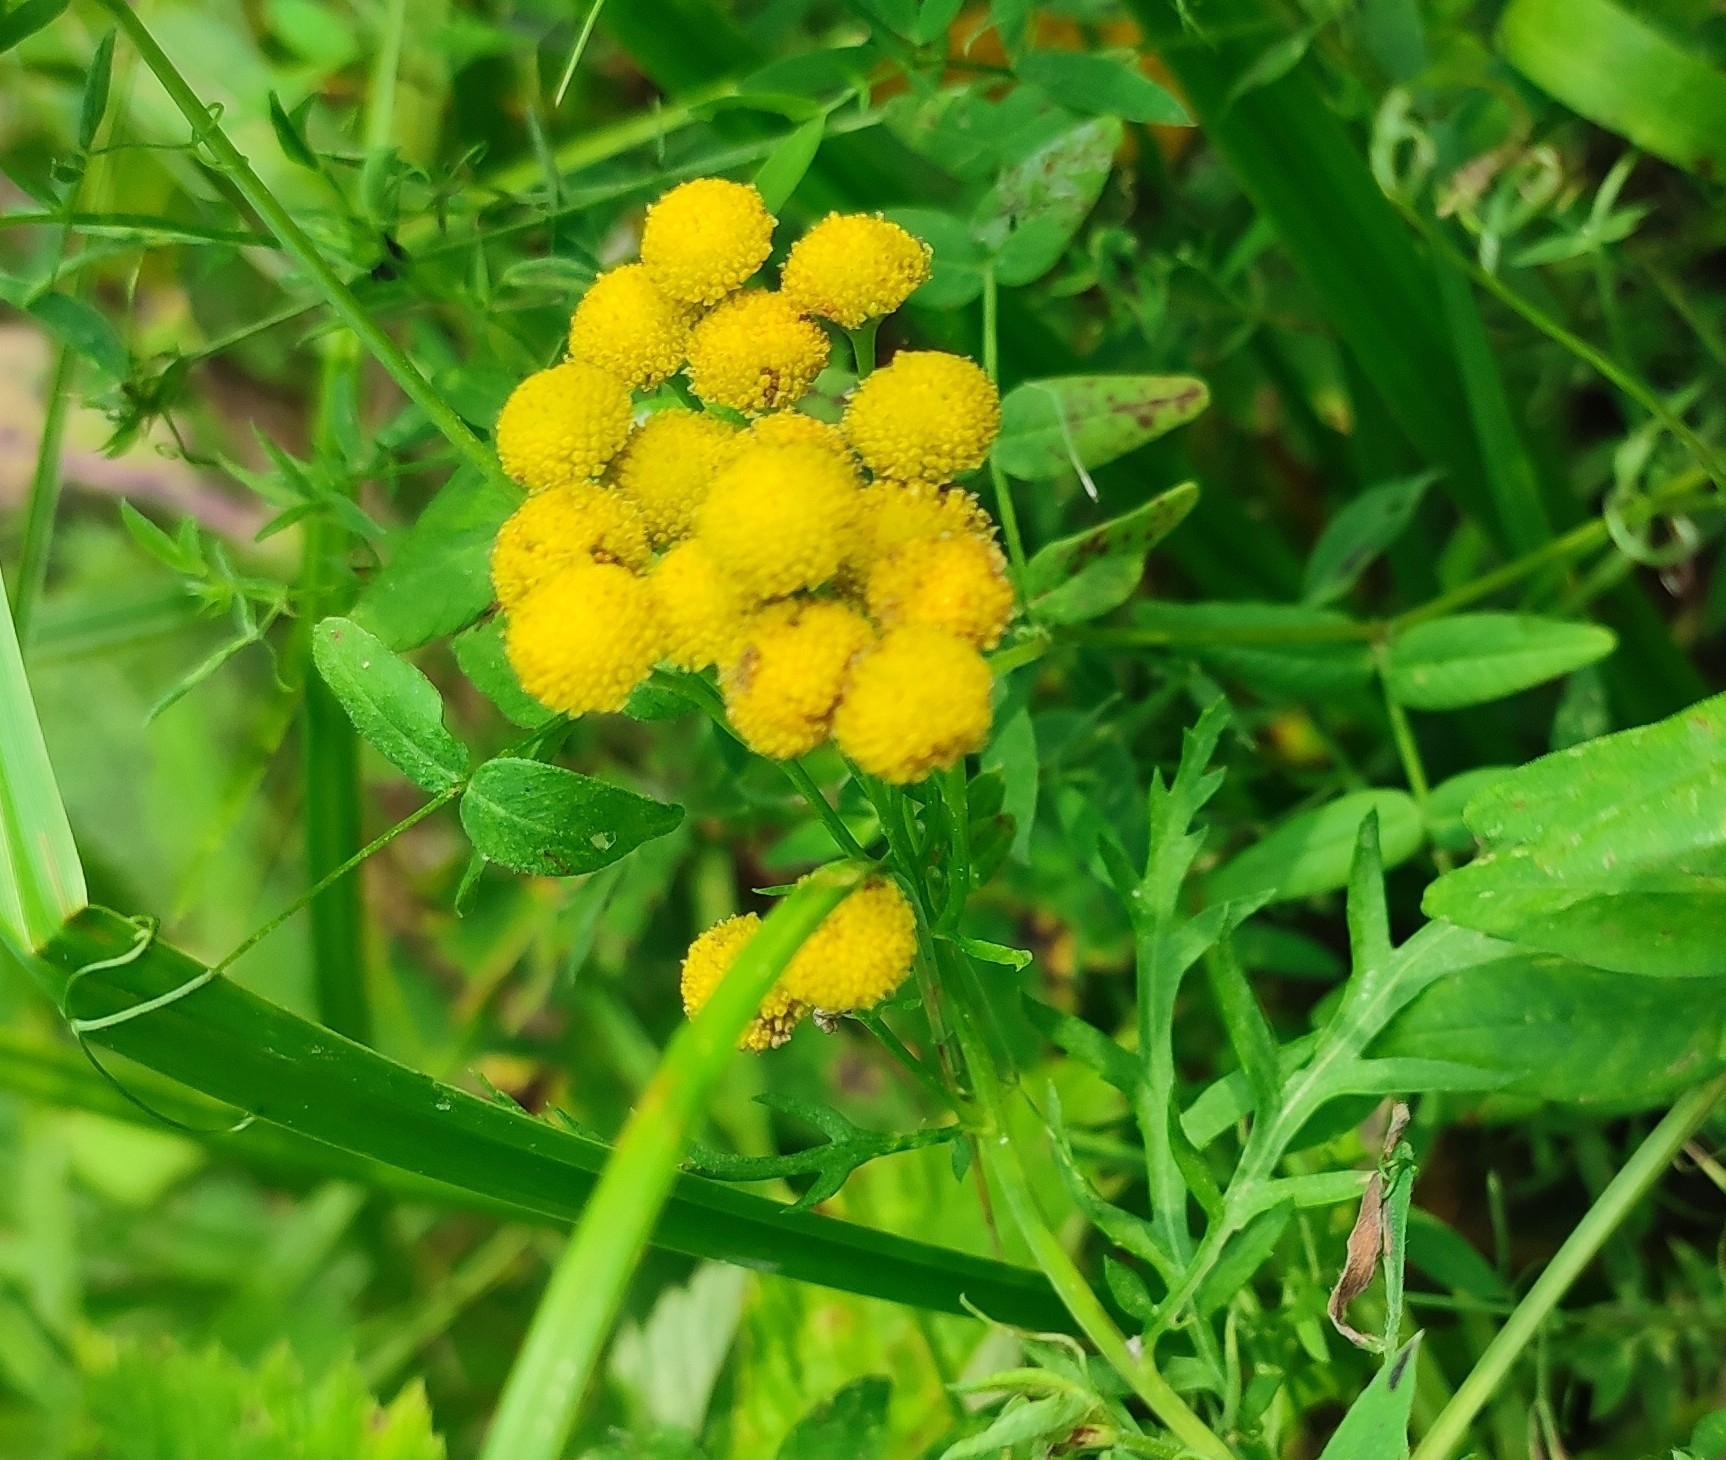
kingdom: Plantae
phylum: Tracheophyta
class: Magnoliopsida
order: Asterales
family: Asteraceae
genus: Tanacetum
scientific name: Tanacetum vulgare
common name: Common tansy
